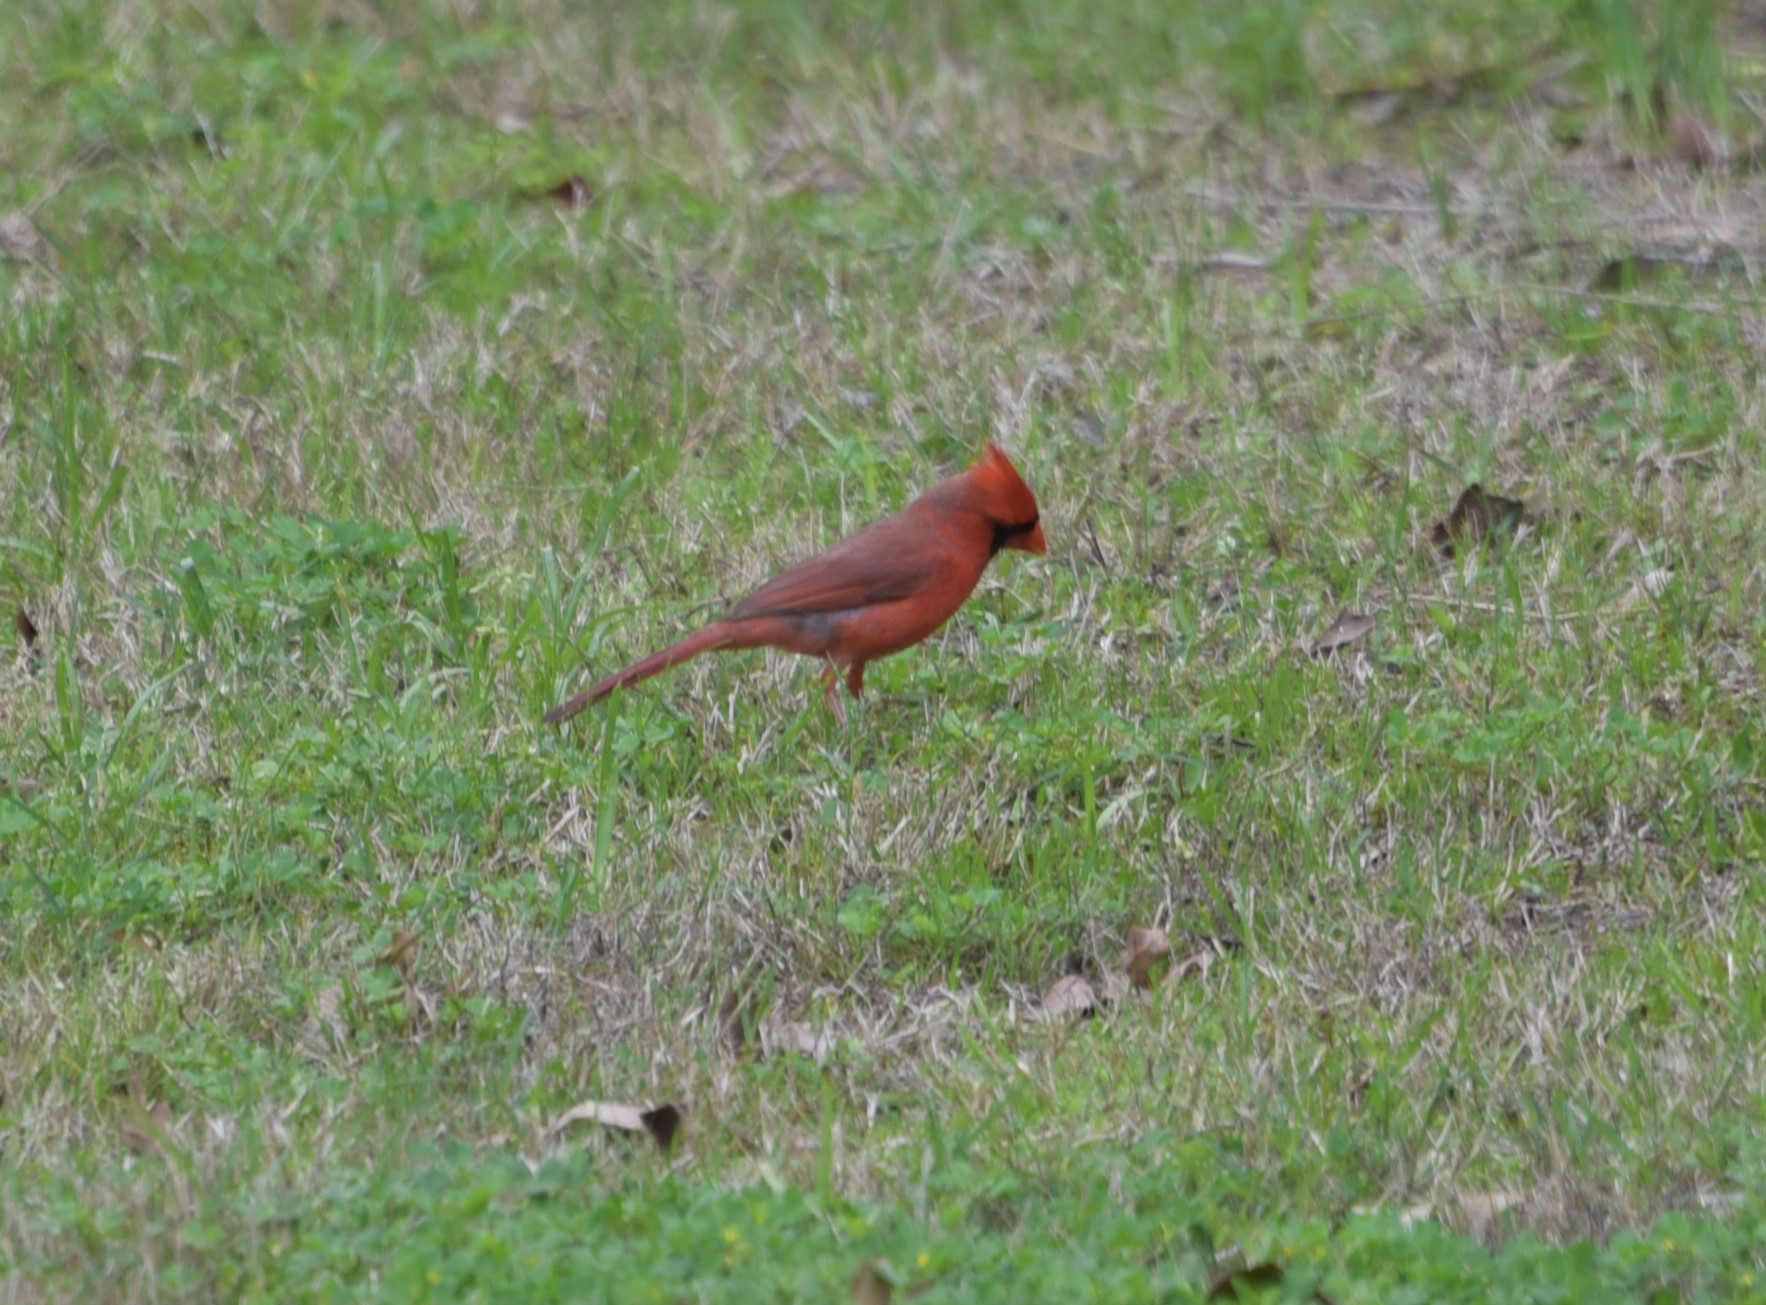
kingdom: Animalia
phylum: Chordata
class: Aves
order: Passeriformes
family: Cardinalidae
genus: Cardinalis
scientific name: Cardinalis cardinalis
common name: Northern cardinal
